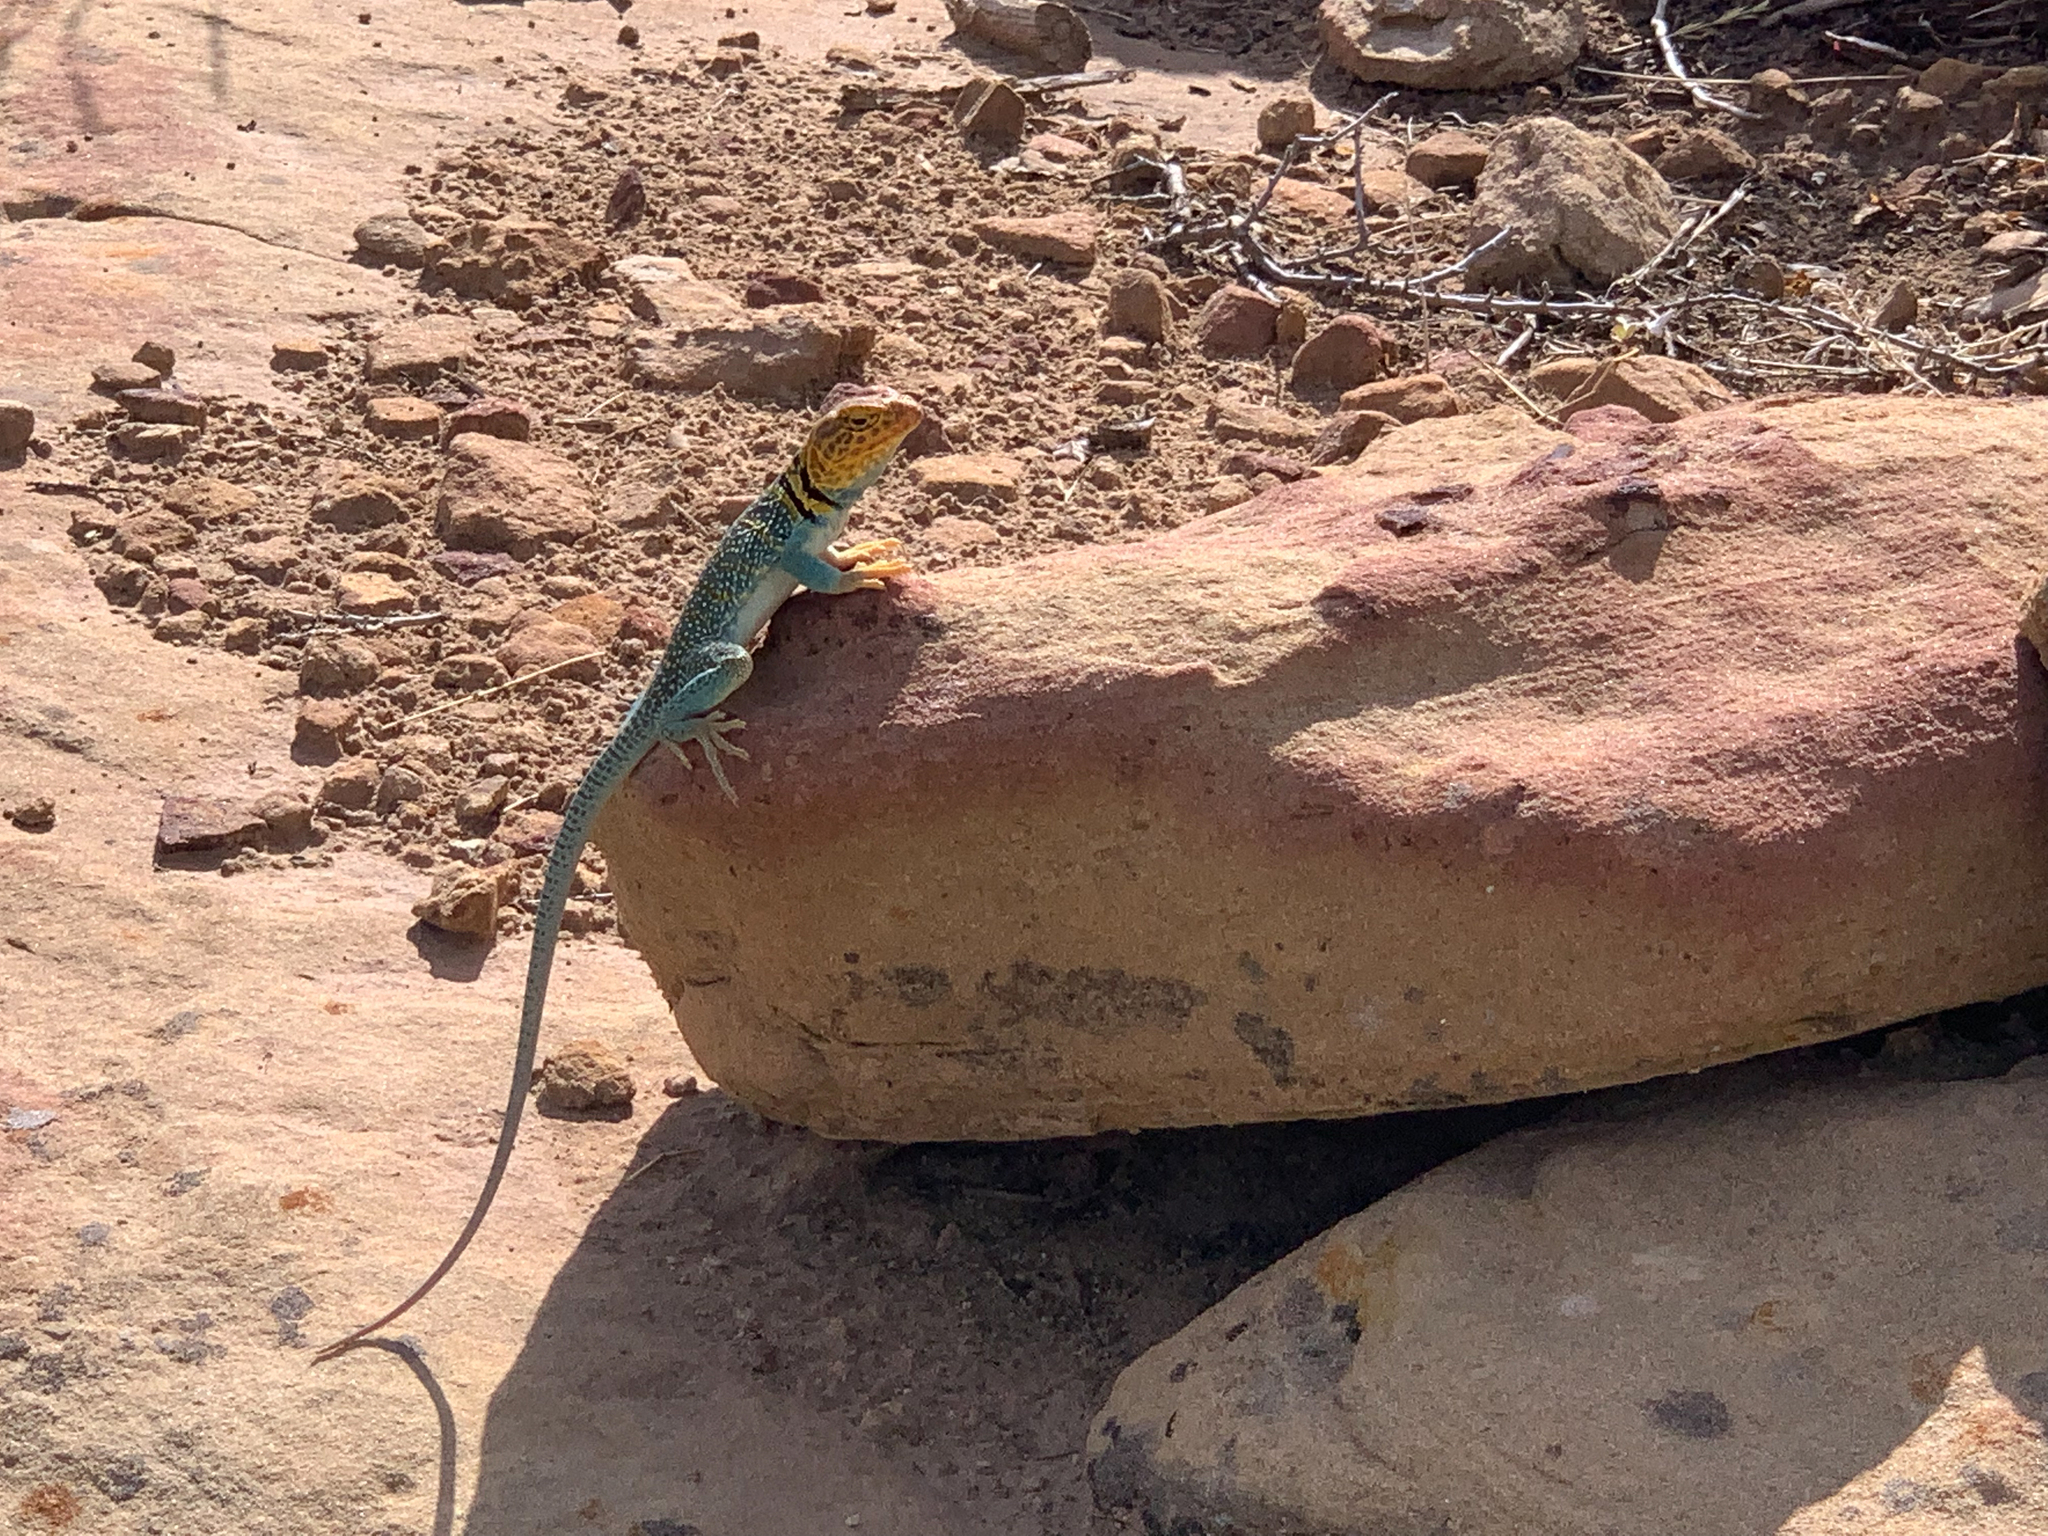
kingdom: Animalia
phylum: Chordata
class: Squamata
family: Crotaphytidae
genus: Crotaphytus
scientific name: Crotaphytus collaris
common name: Collared lizard
